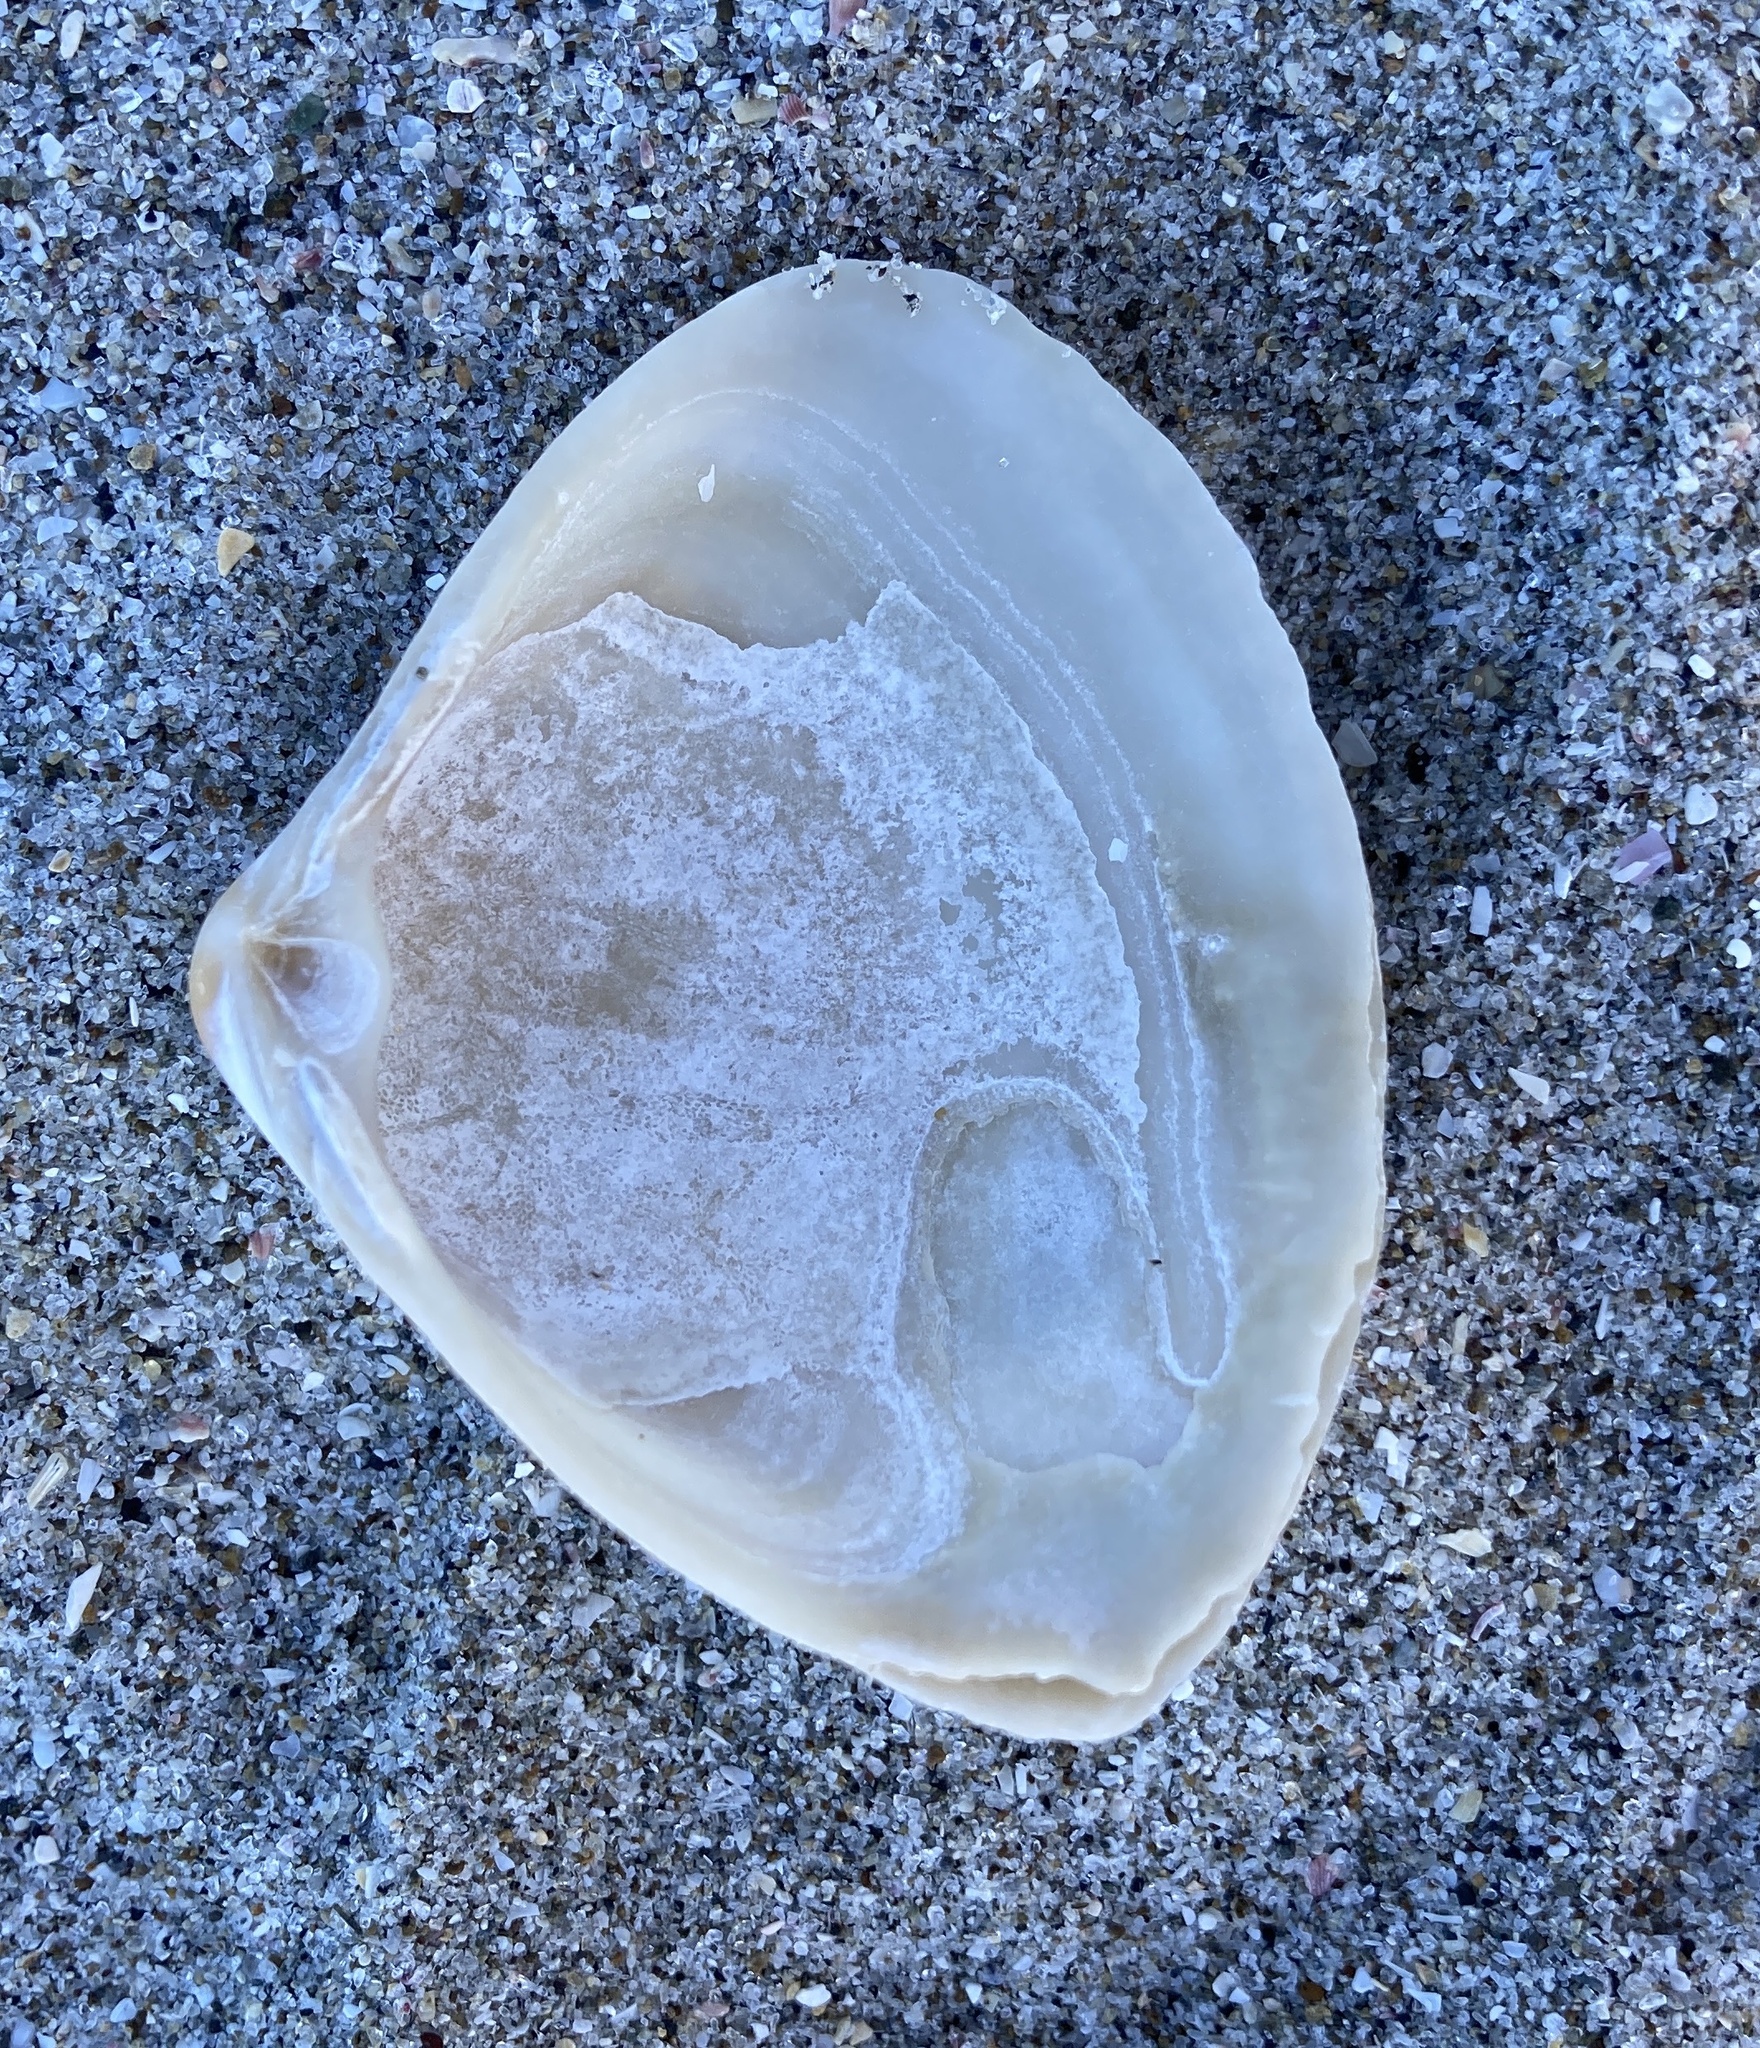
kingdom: Animalia
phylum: Mollusca
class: Bivalvia
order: Venerida
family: Mactridae
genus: Crassula
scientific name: Crassula aequilatera
